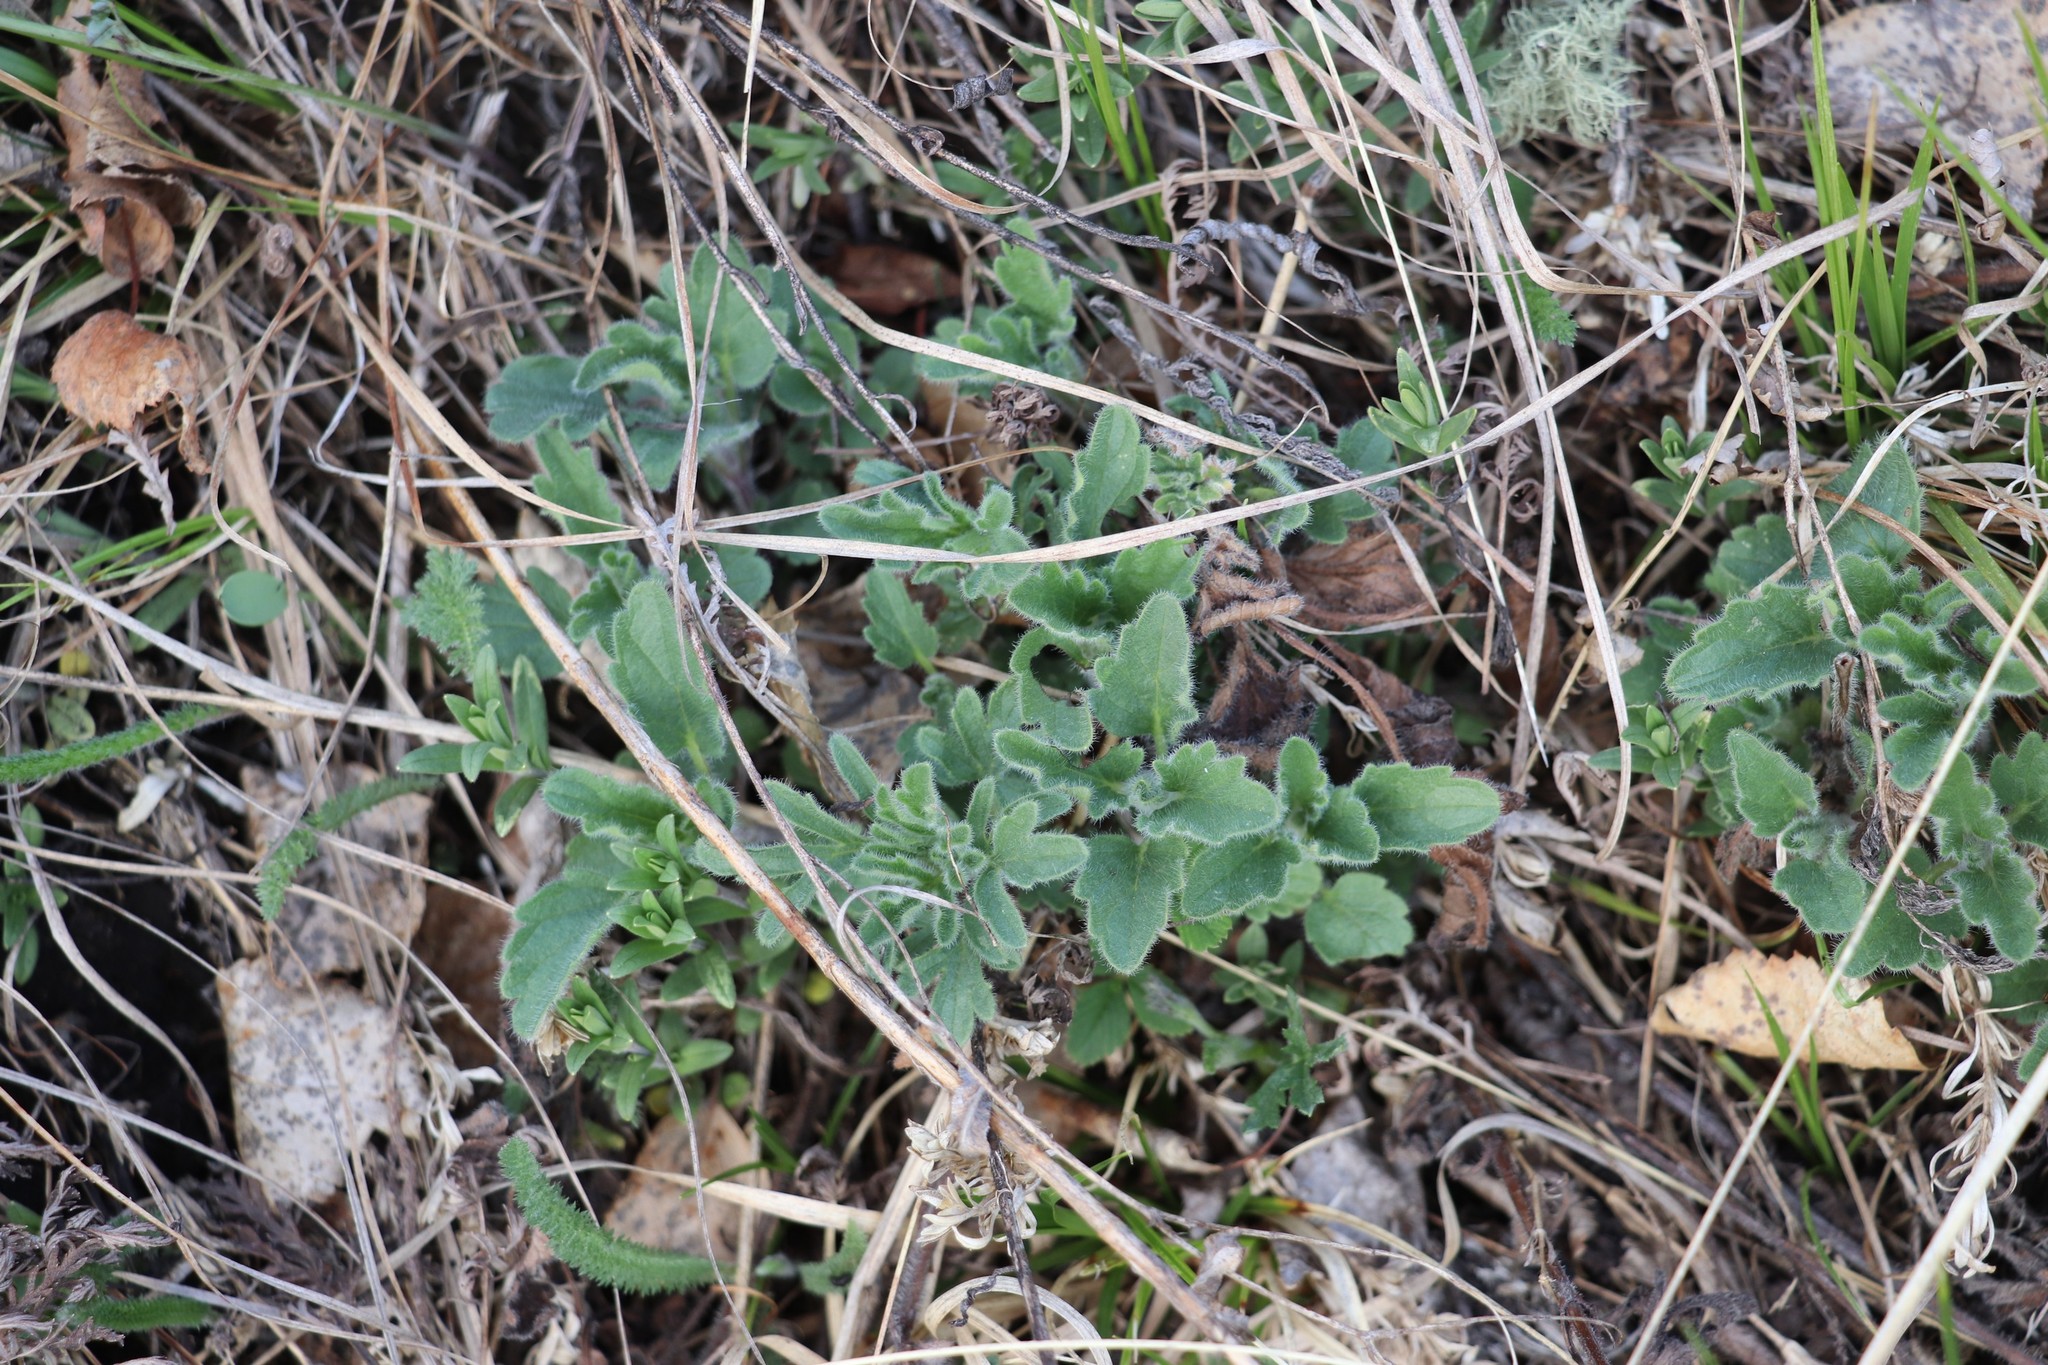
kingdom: Plantae
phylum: Tracheophyta
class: Magnoliopsida
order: Lamiales
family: Lamiaceae
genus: Nepeta
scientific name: Nepeta multifida
